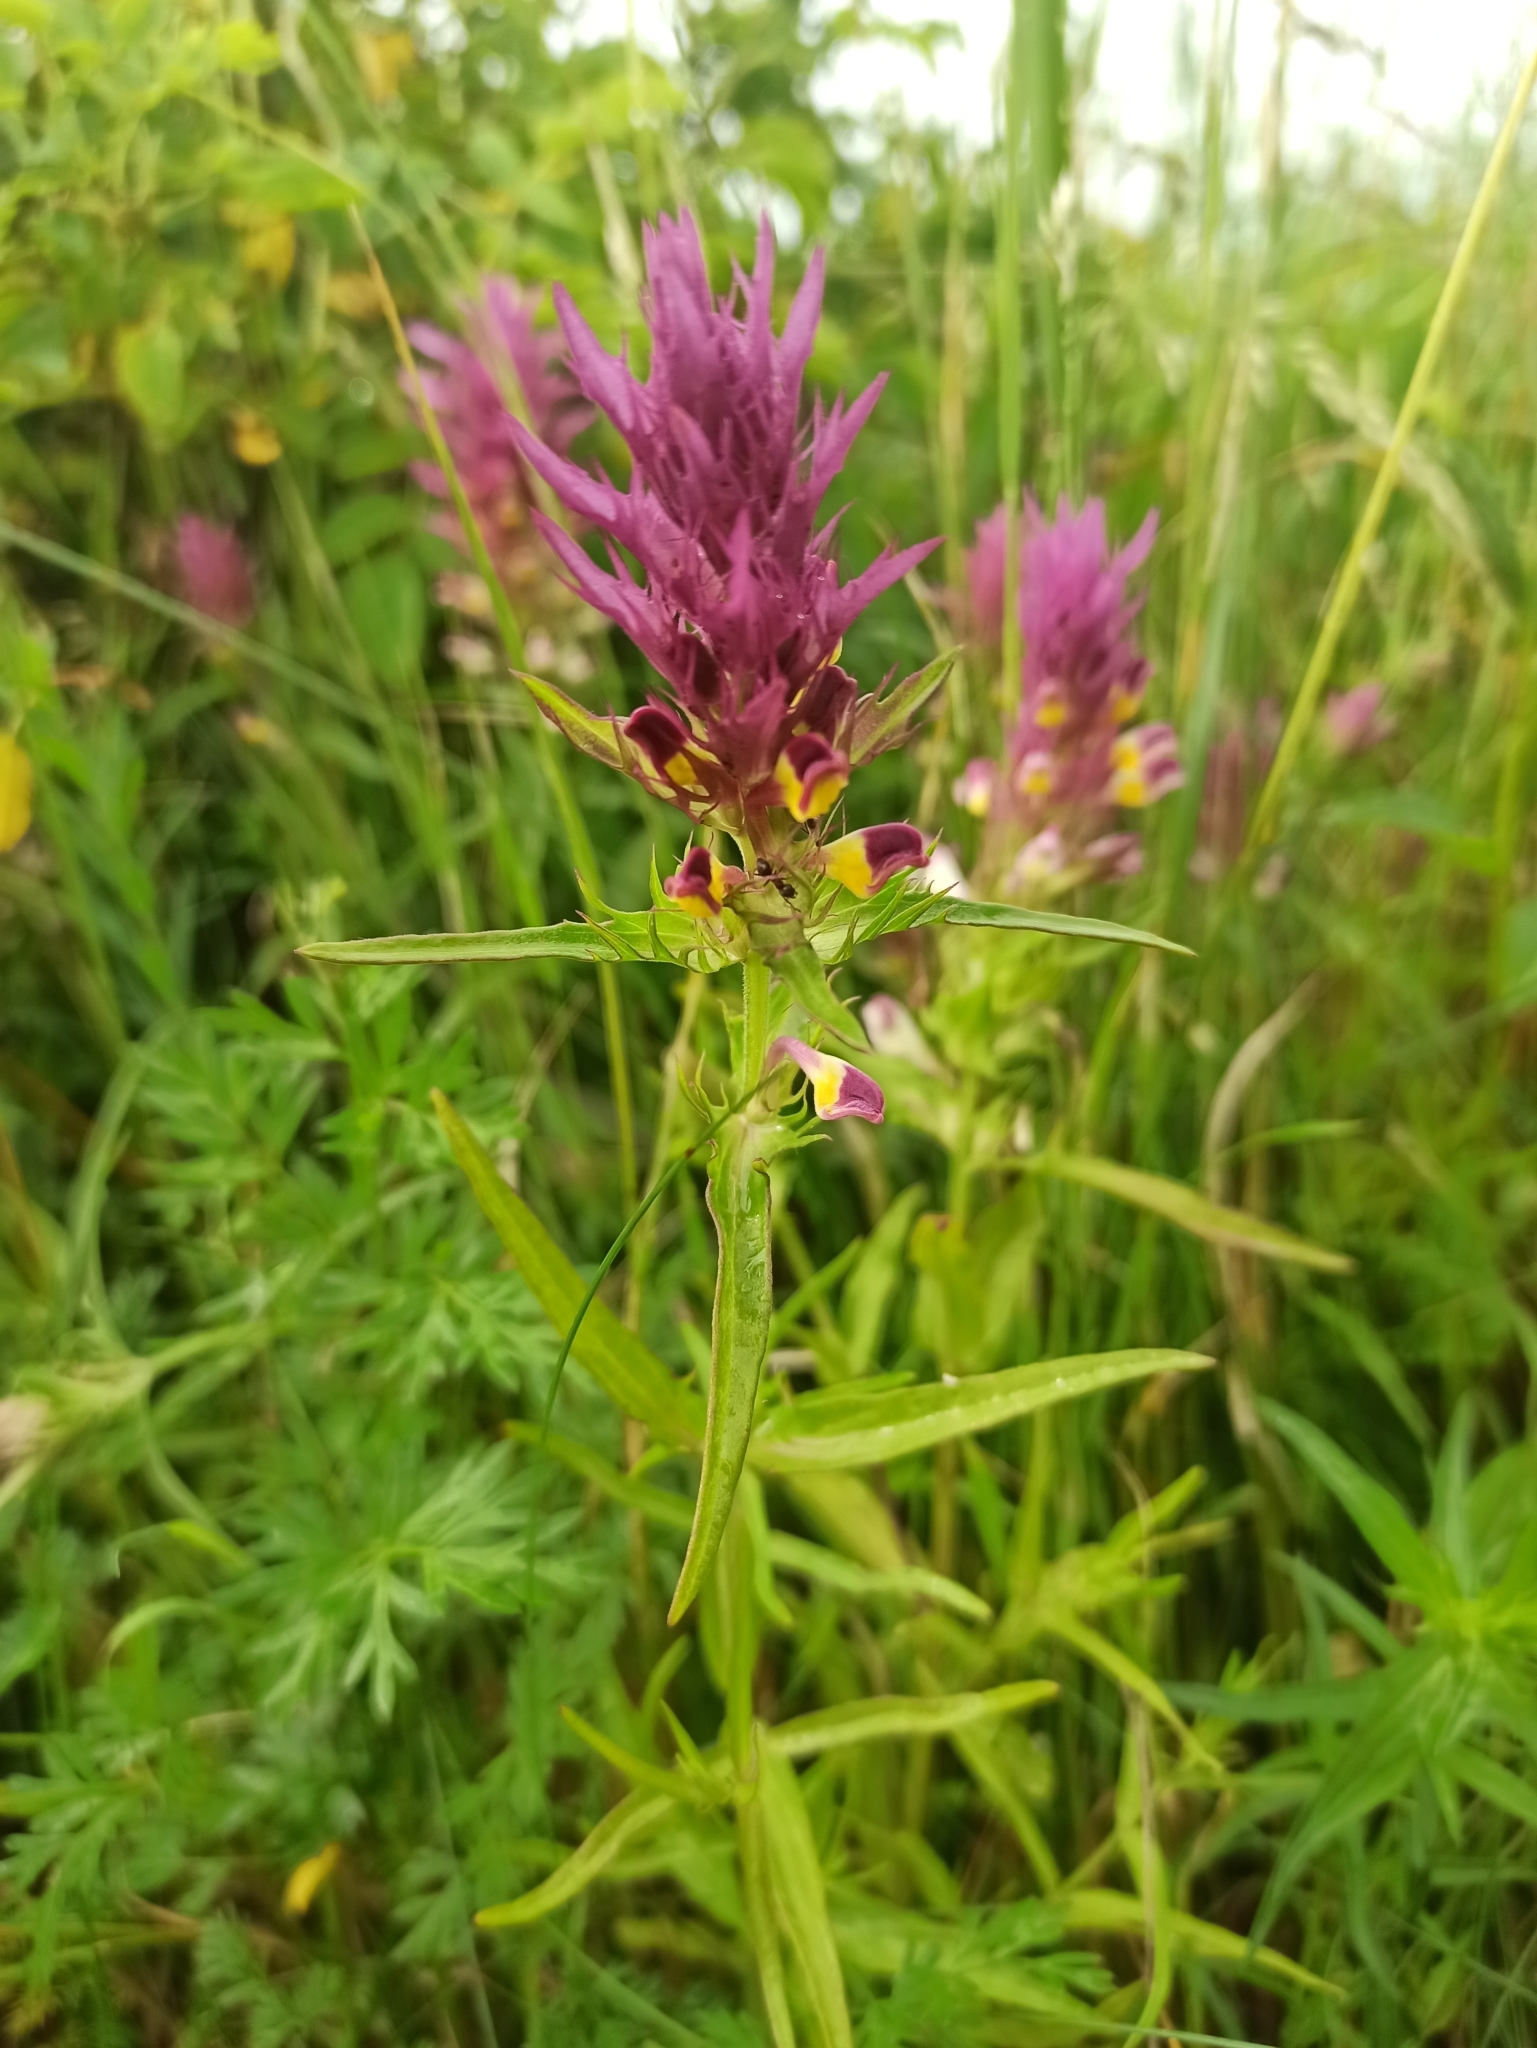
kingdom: Plantae
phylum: Tracheophyta
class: Magnoliopsida
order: Lamiales
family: Orobanchaceae
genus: Melampyrum
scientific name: Melampyrum arvense
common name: Field cow-wheat
